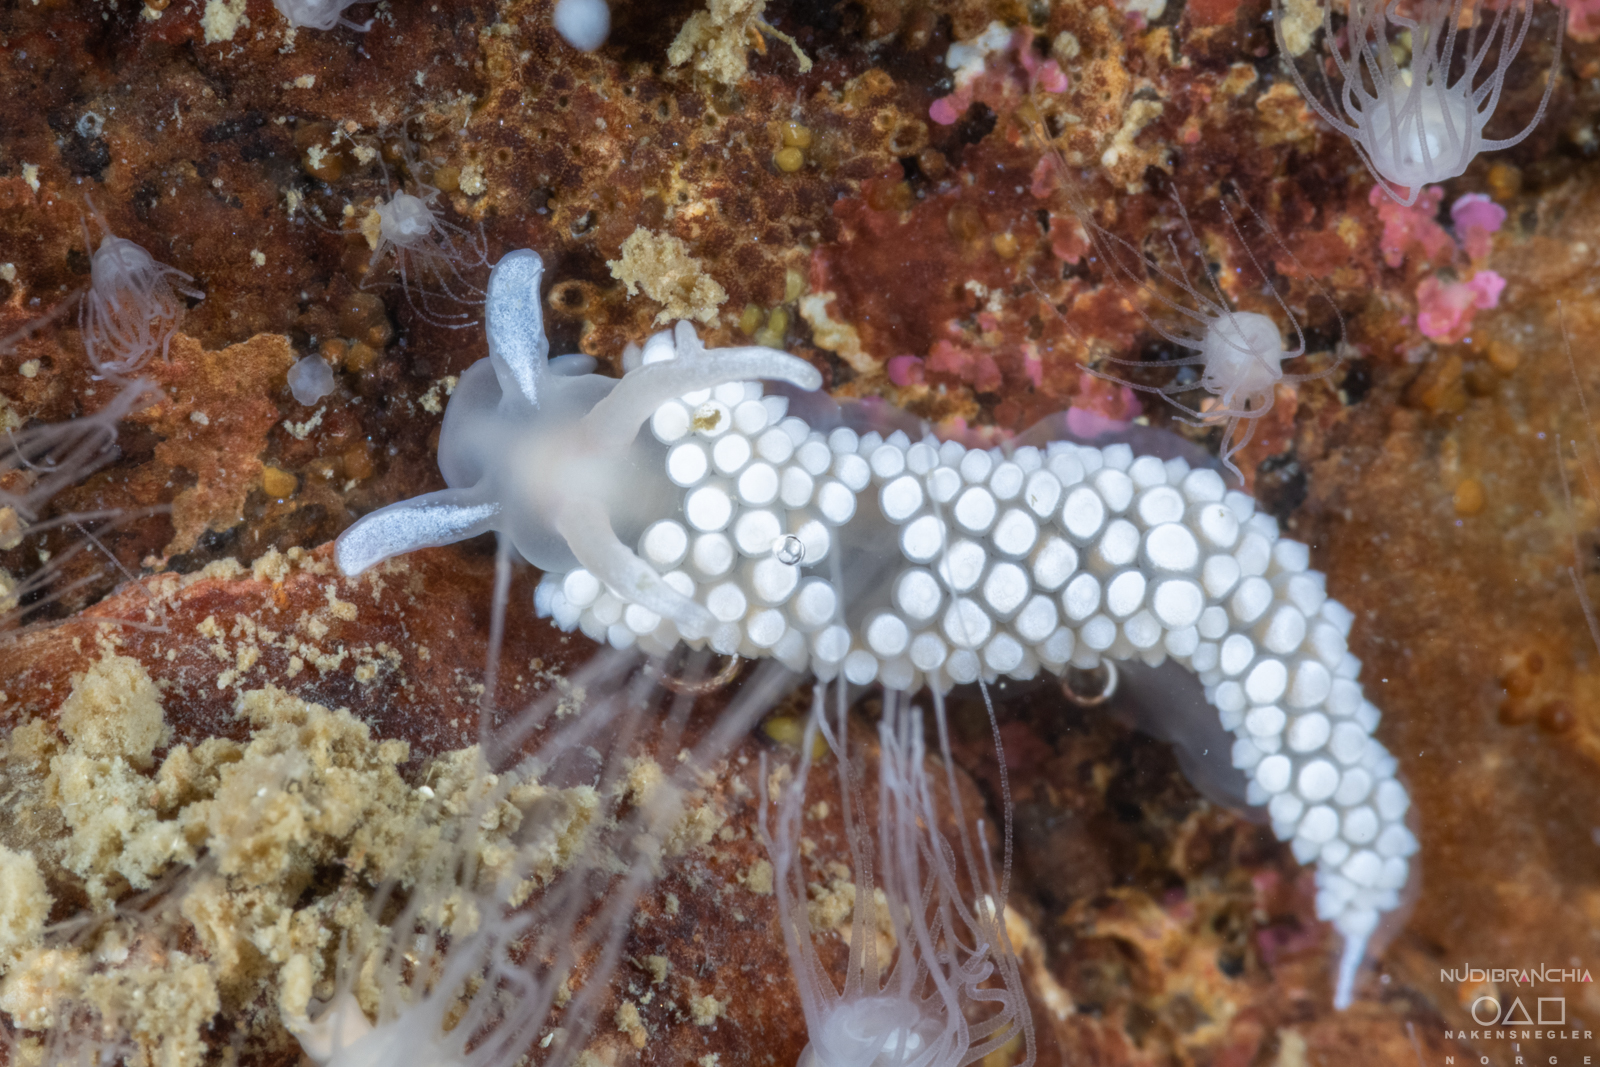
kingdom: Animalia
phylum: Mollusca
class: Gastropoda
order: Nudibranchia
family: Coryphellidae
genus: Coryphella
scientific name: Coryphella verrucosa
